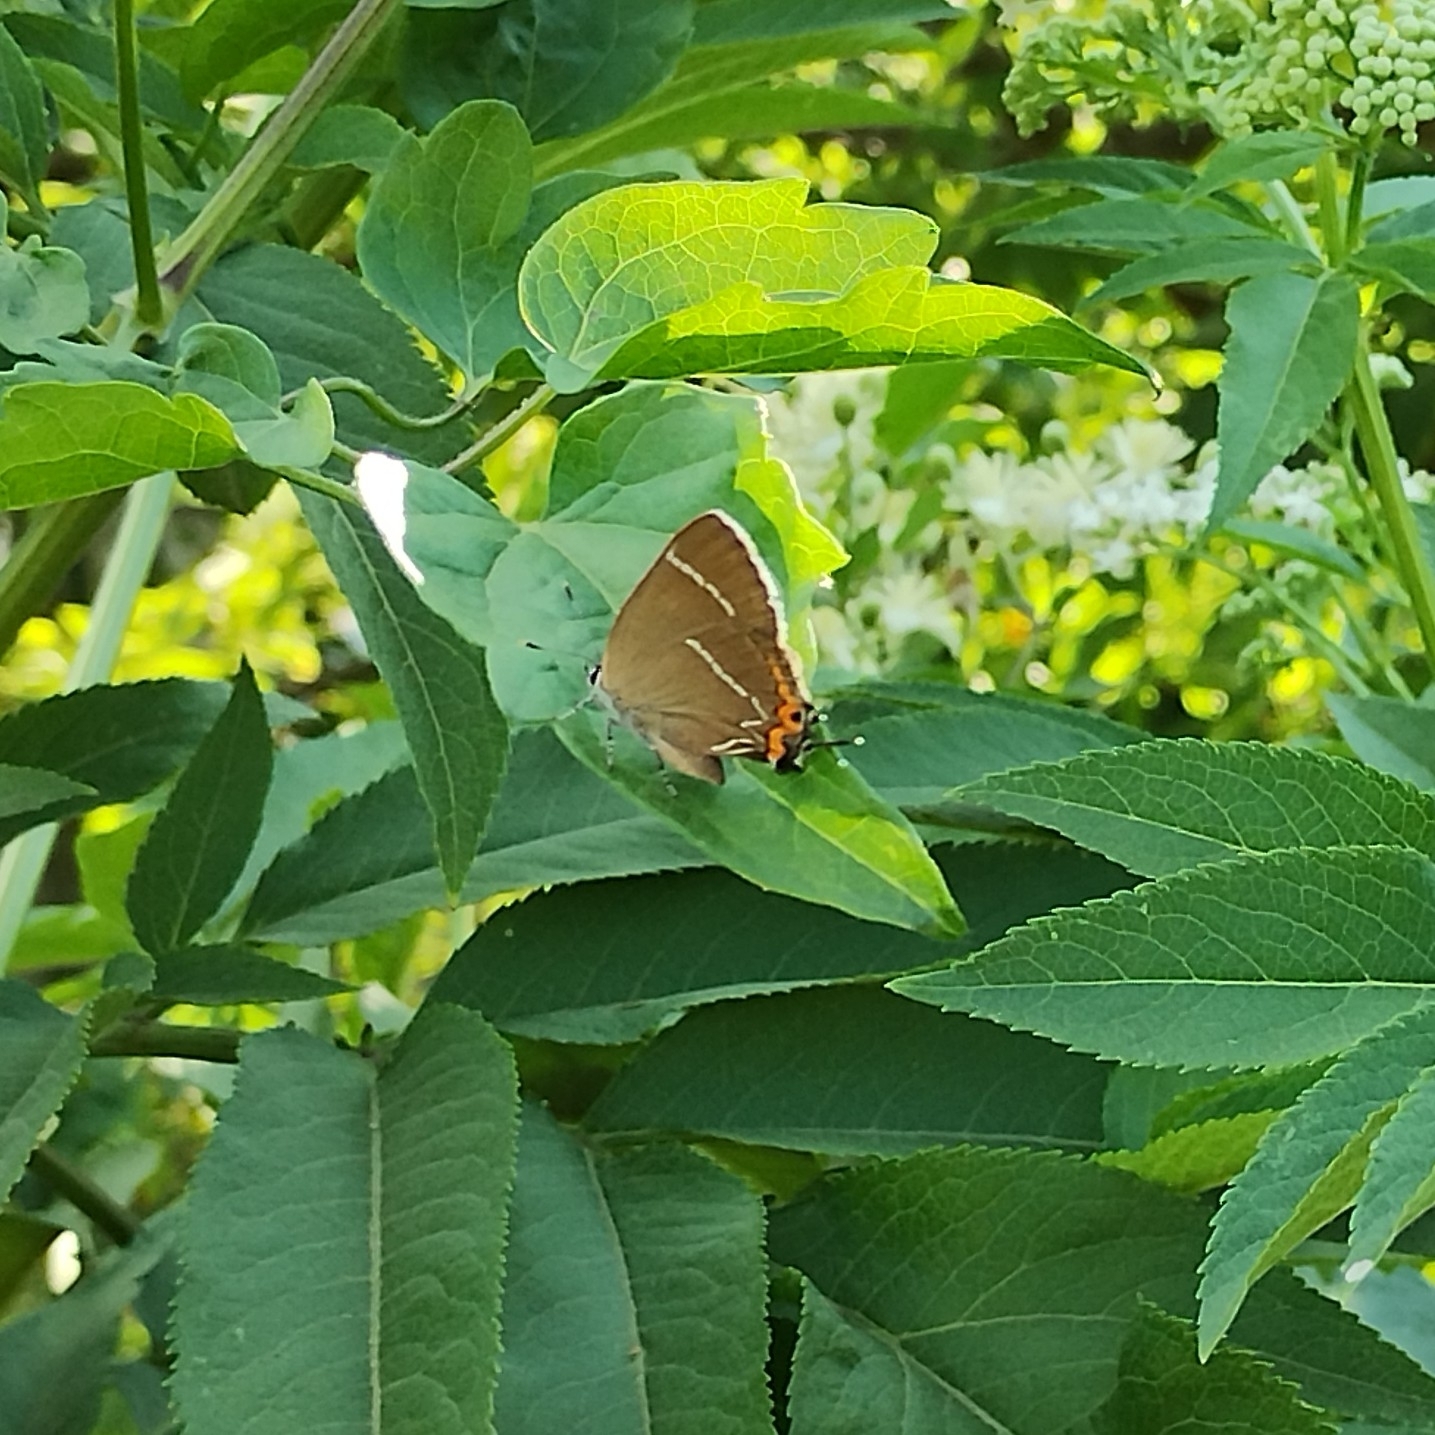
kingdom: Animalia
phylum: Arthropoda
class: Insecta
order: Lepidoptera
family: Lycaenidae
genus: Satyrium
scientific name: Satyrium w-album
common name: White-letter hairstreak
